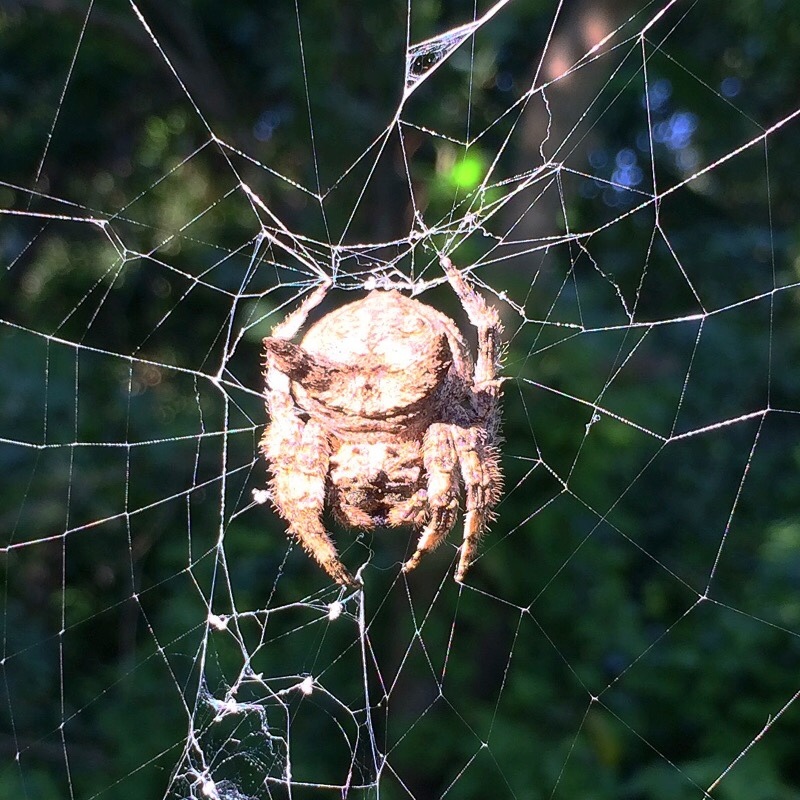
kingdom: Animalia
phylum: Arthropoda
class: Arachnida
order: Araneae
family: Araneidae
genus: Caerostris
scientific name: Caerostris sexcuspidata
